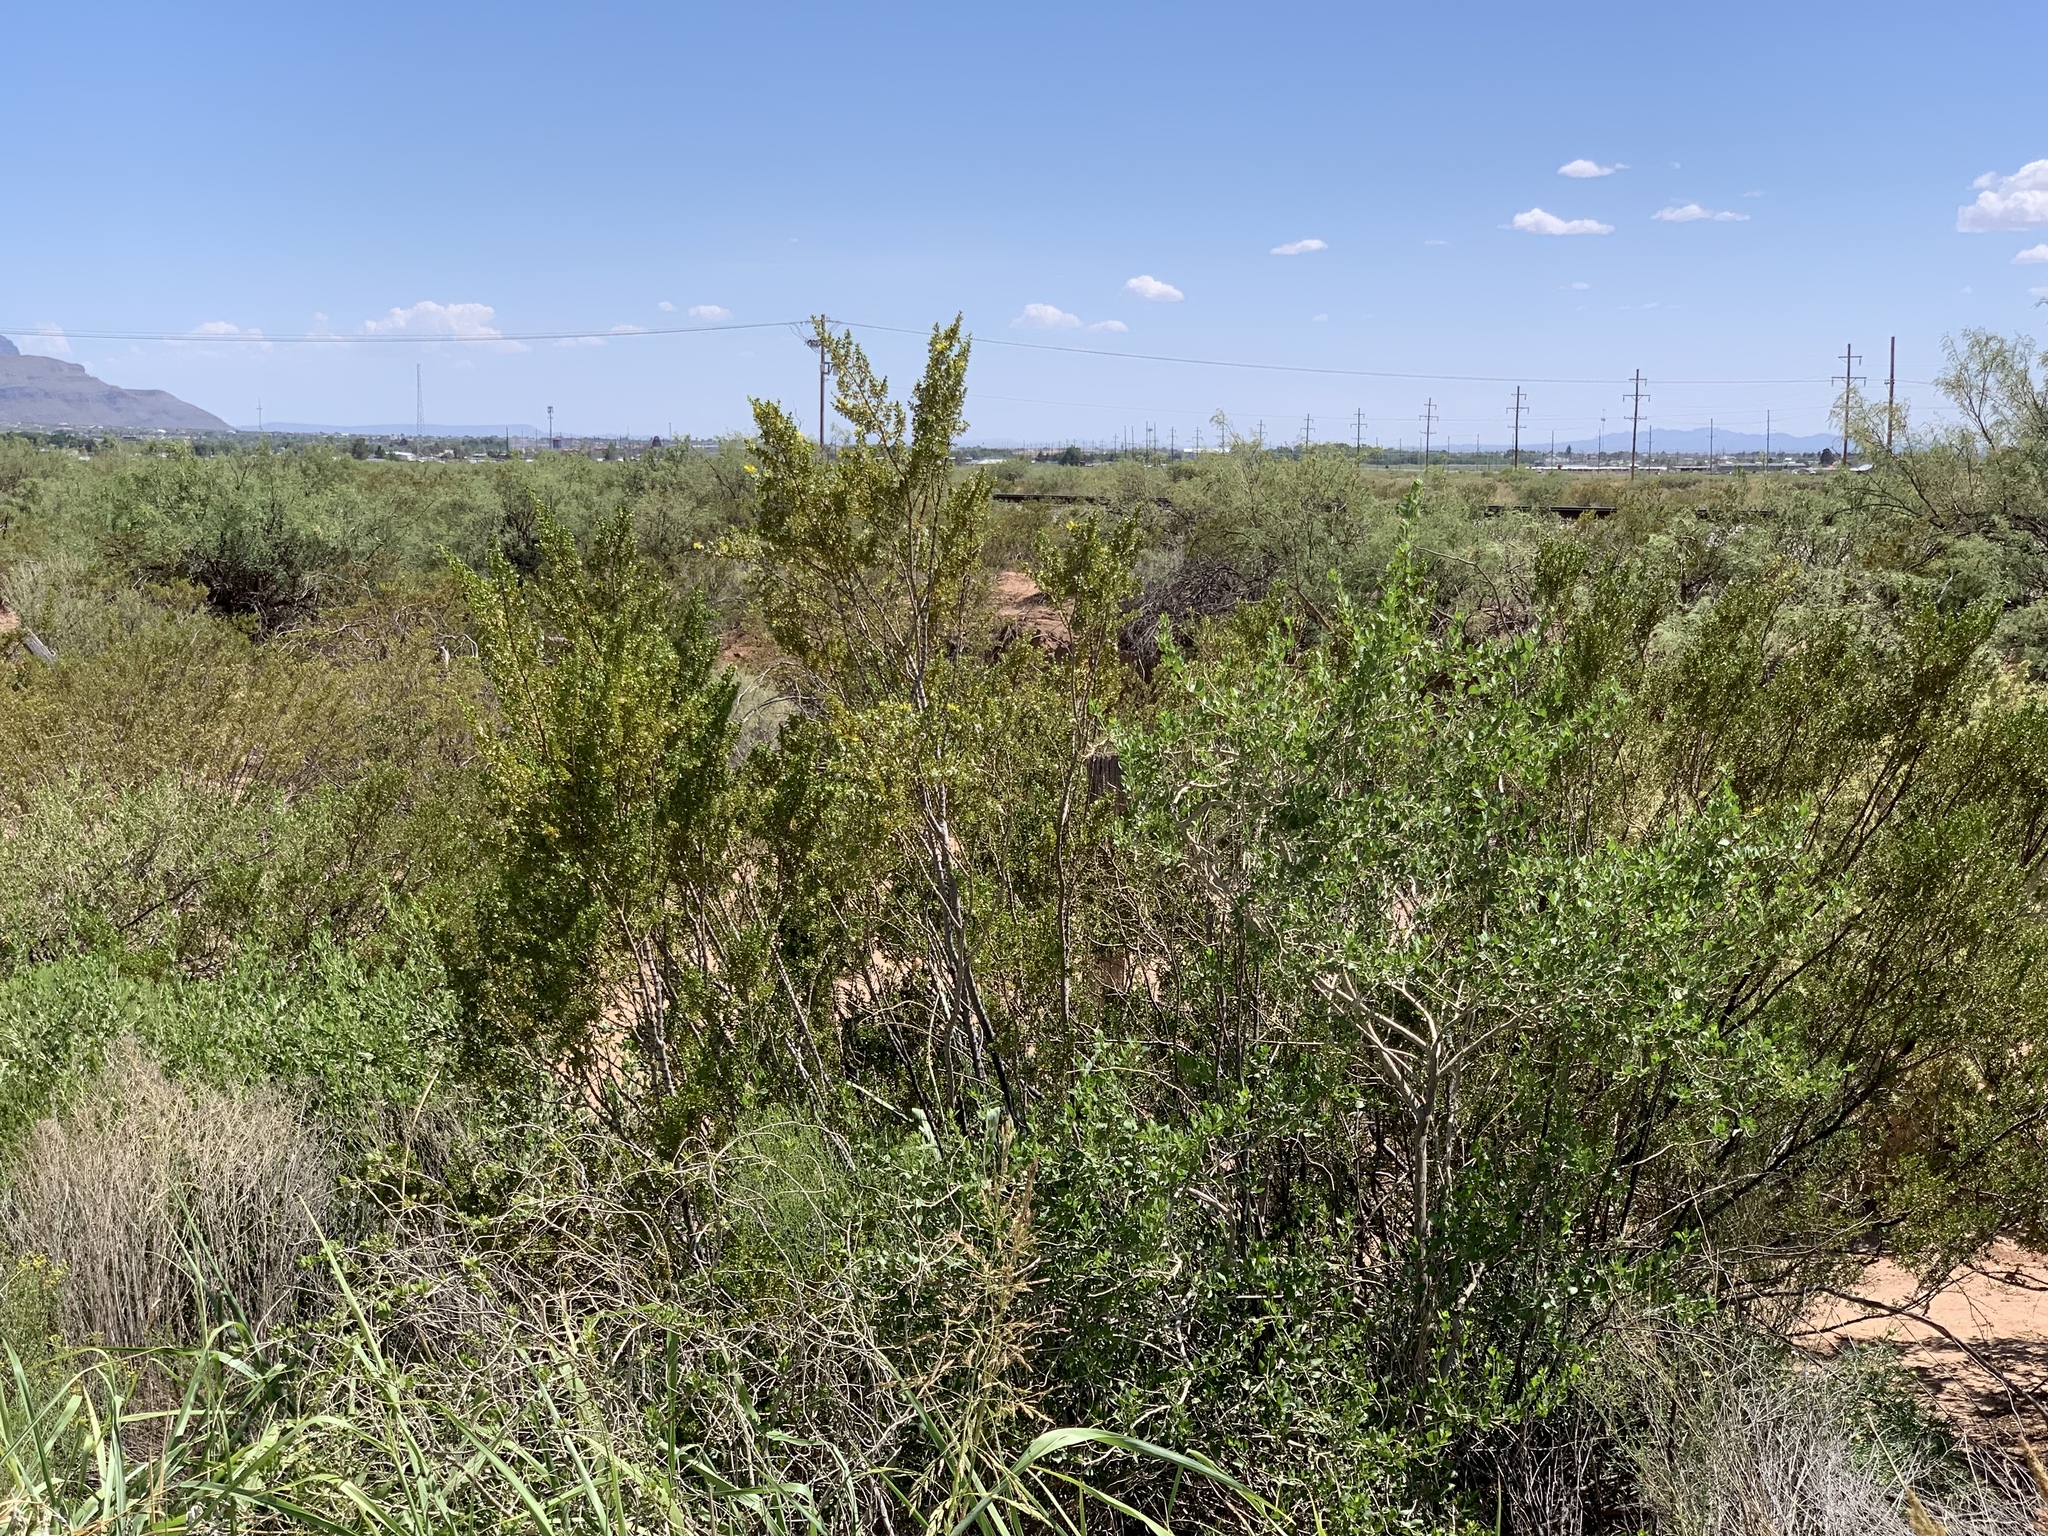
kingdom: Plantae
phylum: Tracheophyta
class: Magnoliopsida
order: Zygophyllales
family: Zygophyllaceae
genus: Larrea
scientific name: Larrea tridentata
